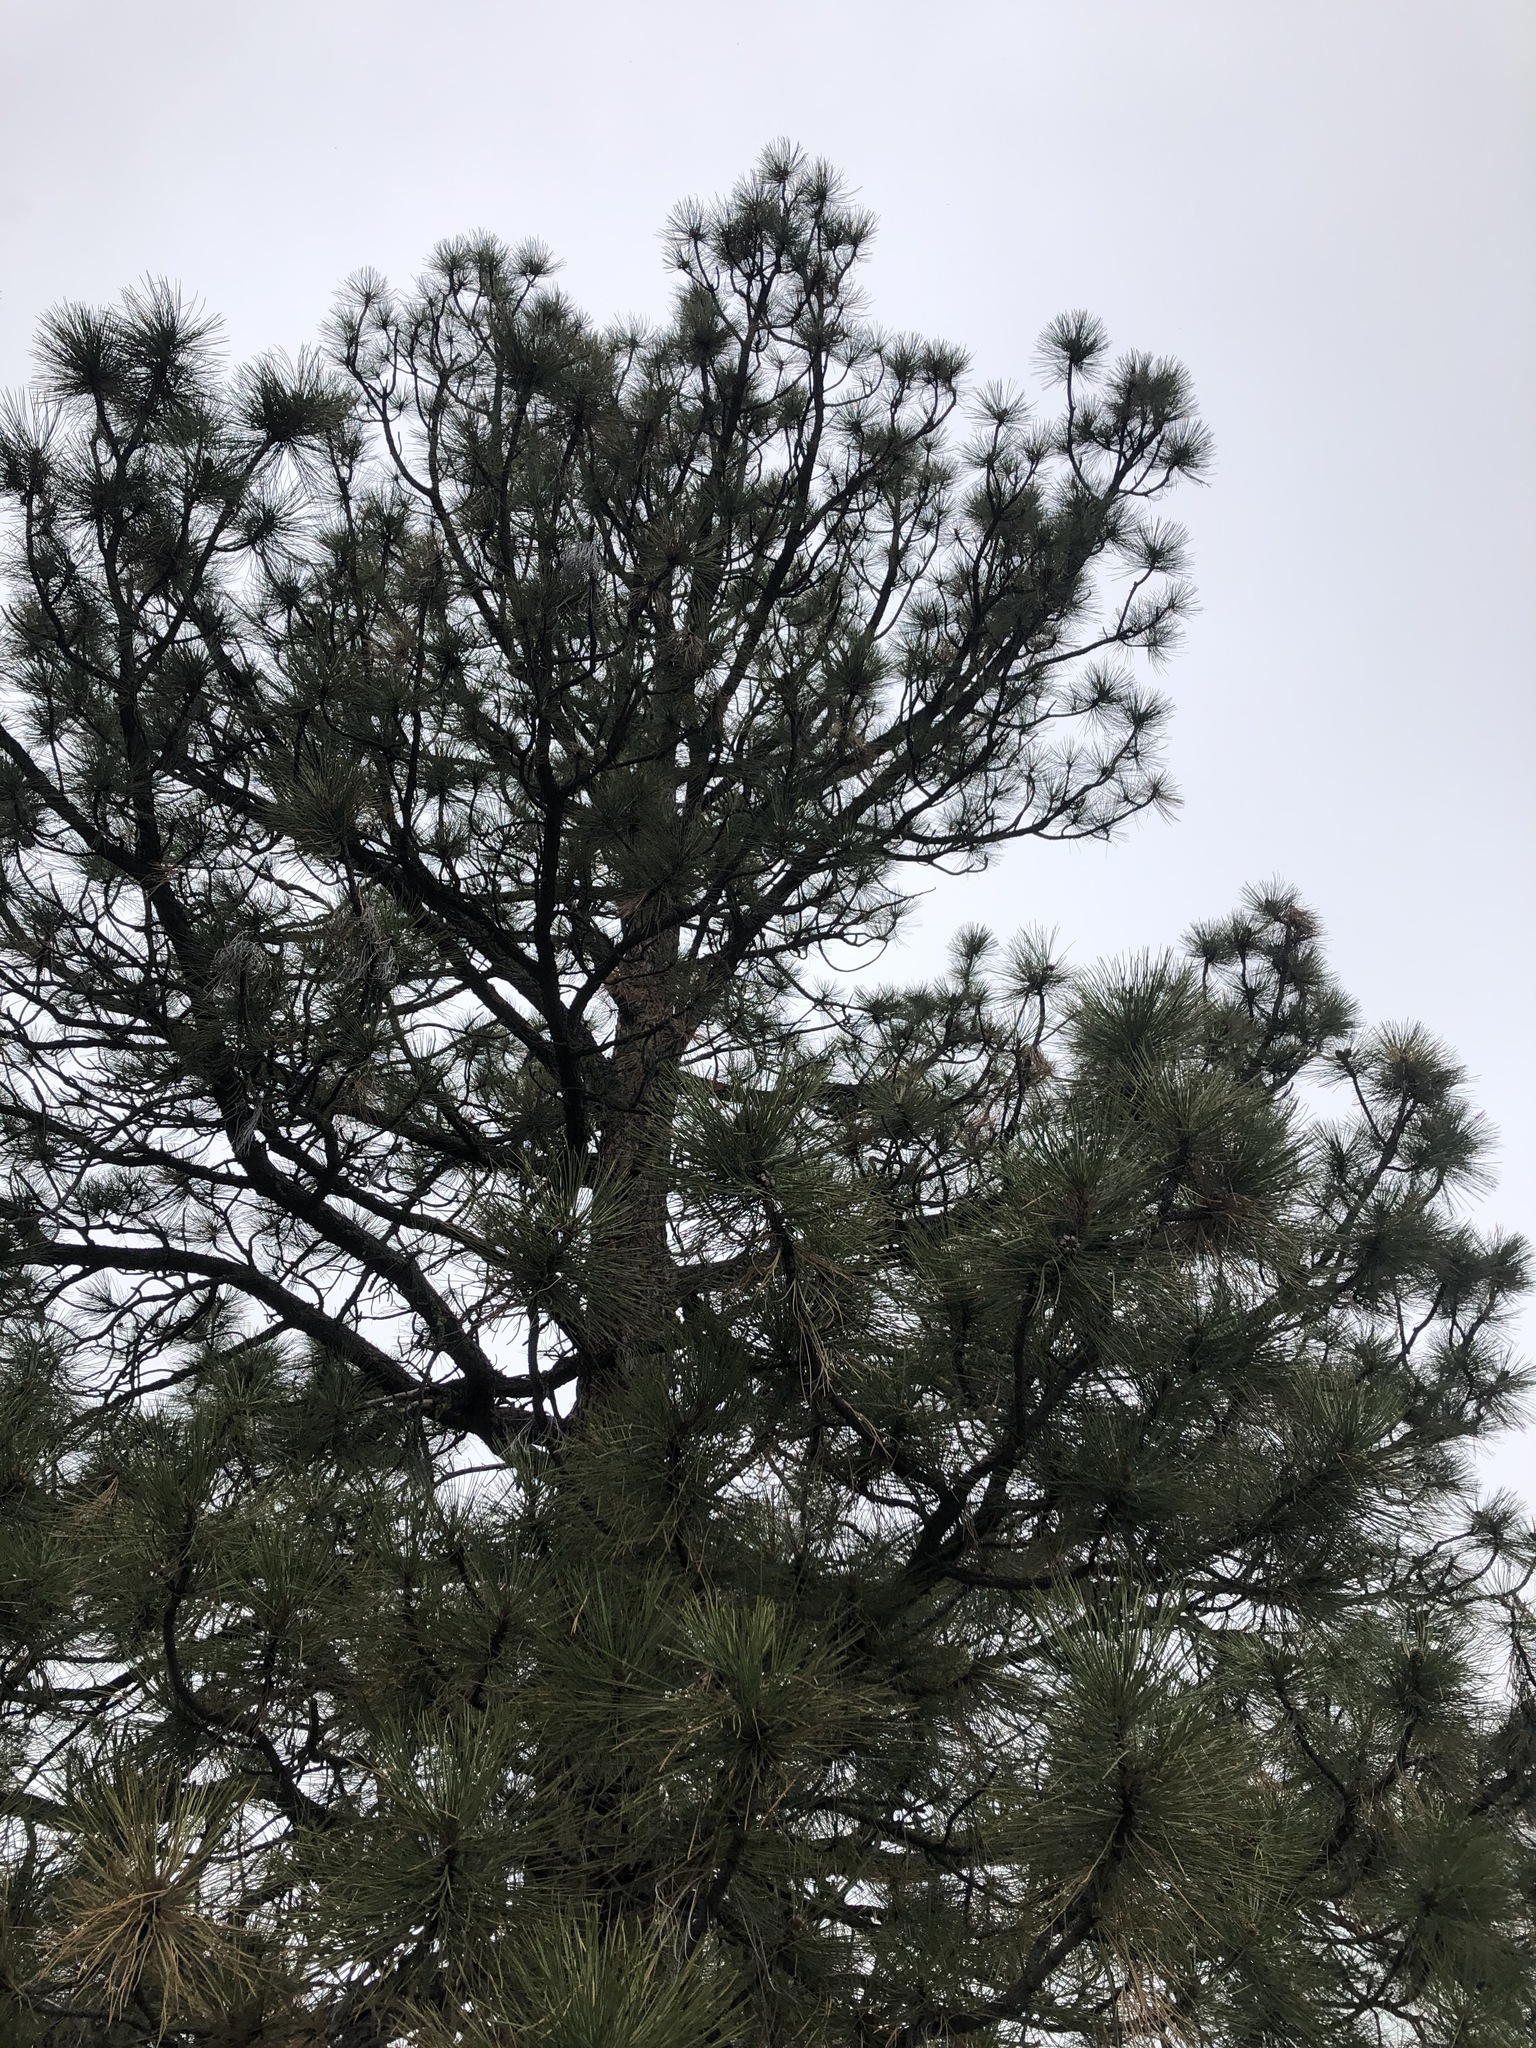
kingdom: Plantae
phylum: Tracheophyta
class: Pinopsida
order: Pinales
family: Pinaceae
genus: Pinus
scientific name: Pinus ponderosa
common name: Western yellow-pine
